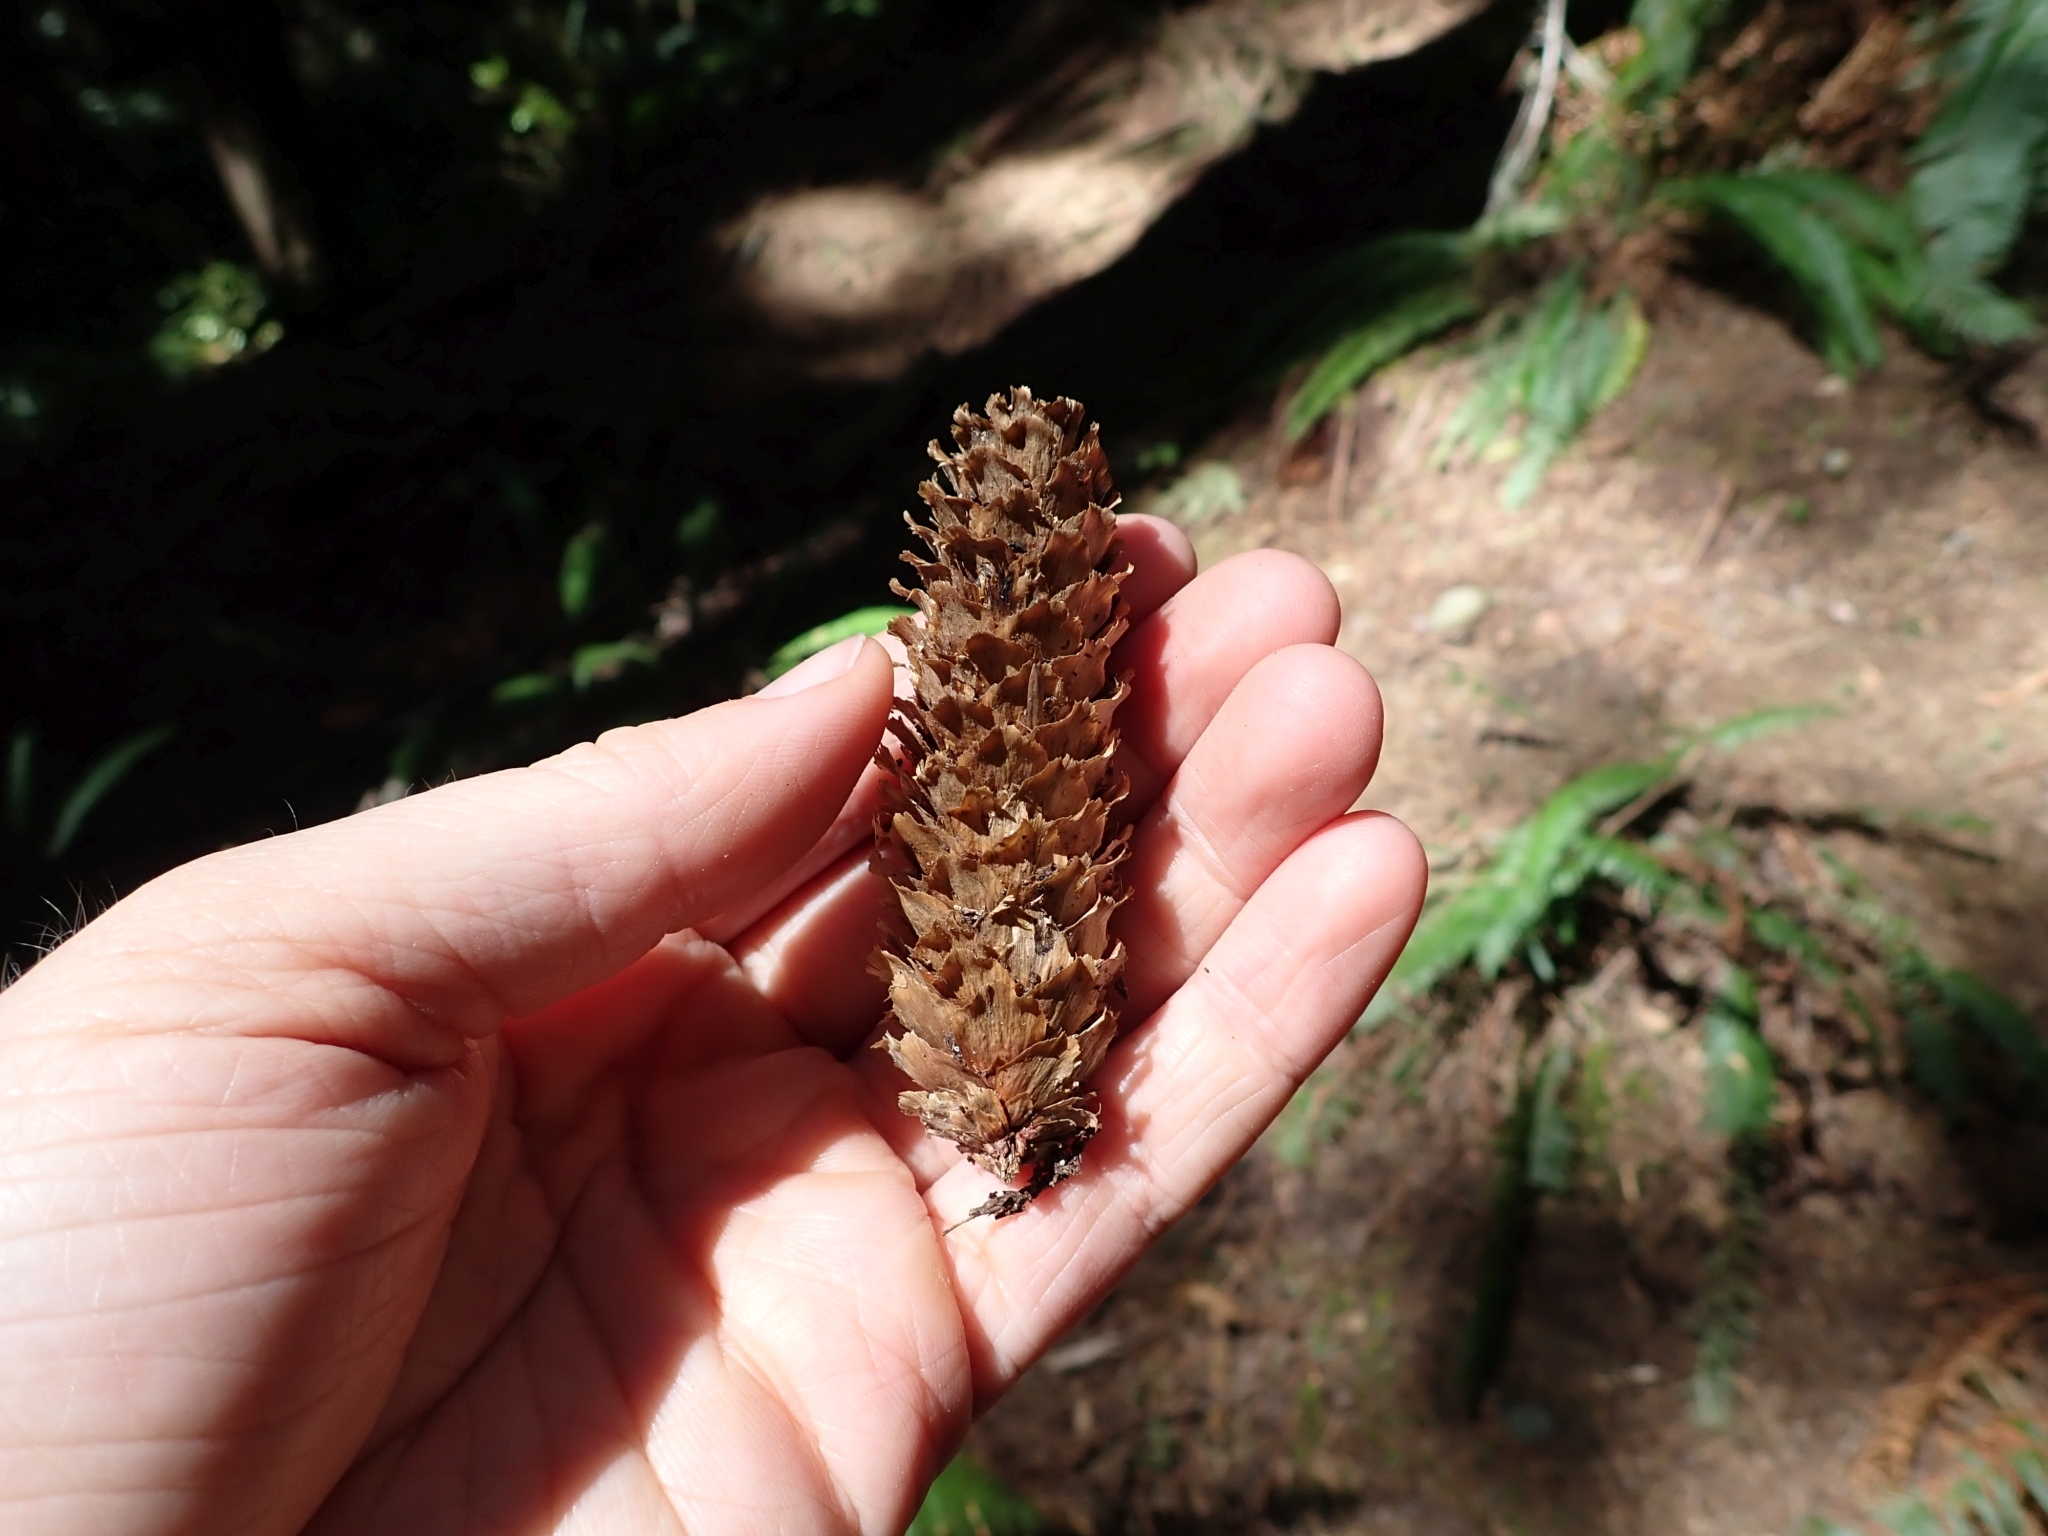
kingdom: Plantae
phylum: Tracheophyta
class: Pinopsida
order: Pinales
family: Pinaceae
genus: Picea
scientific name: Picea sitchensis
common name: Sitka spruce
